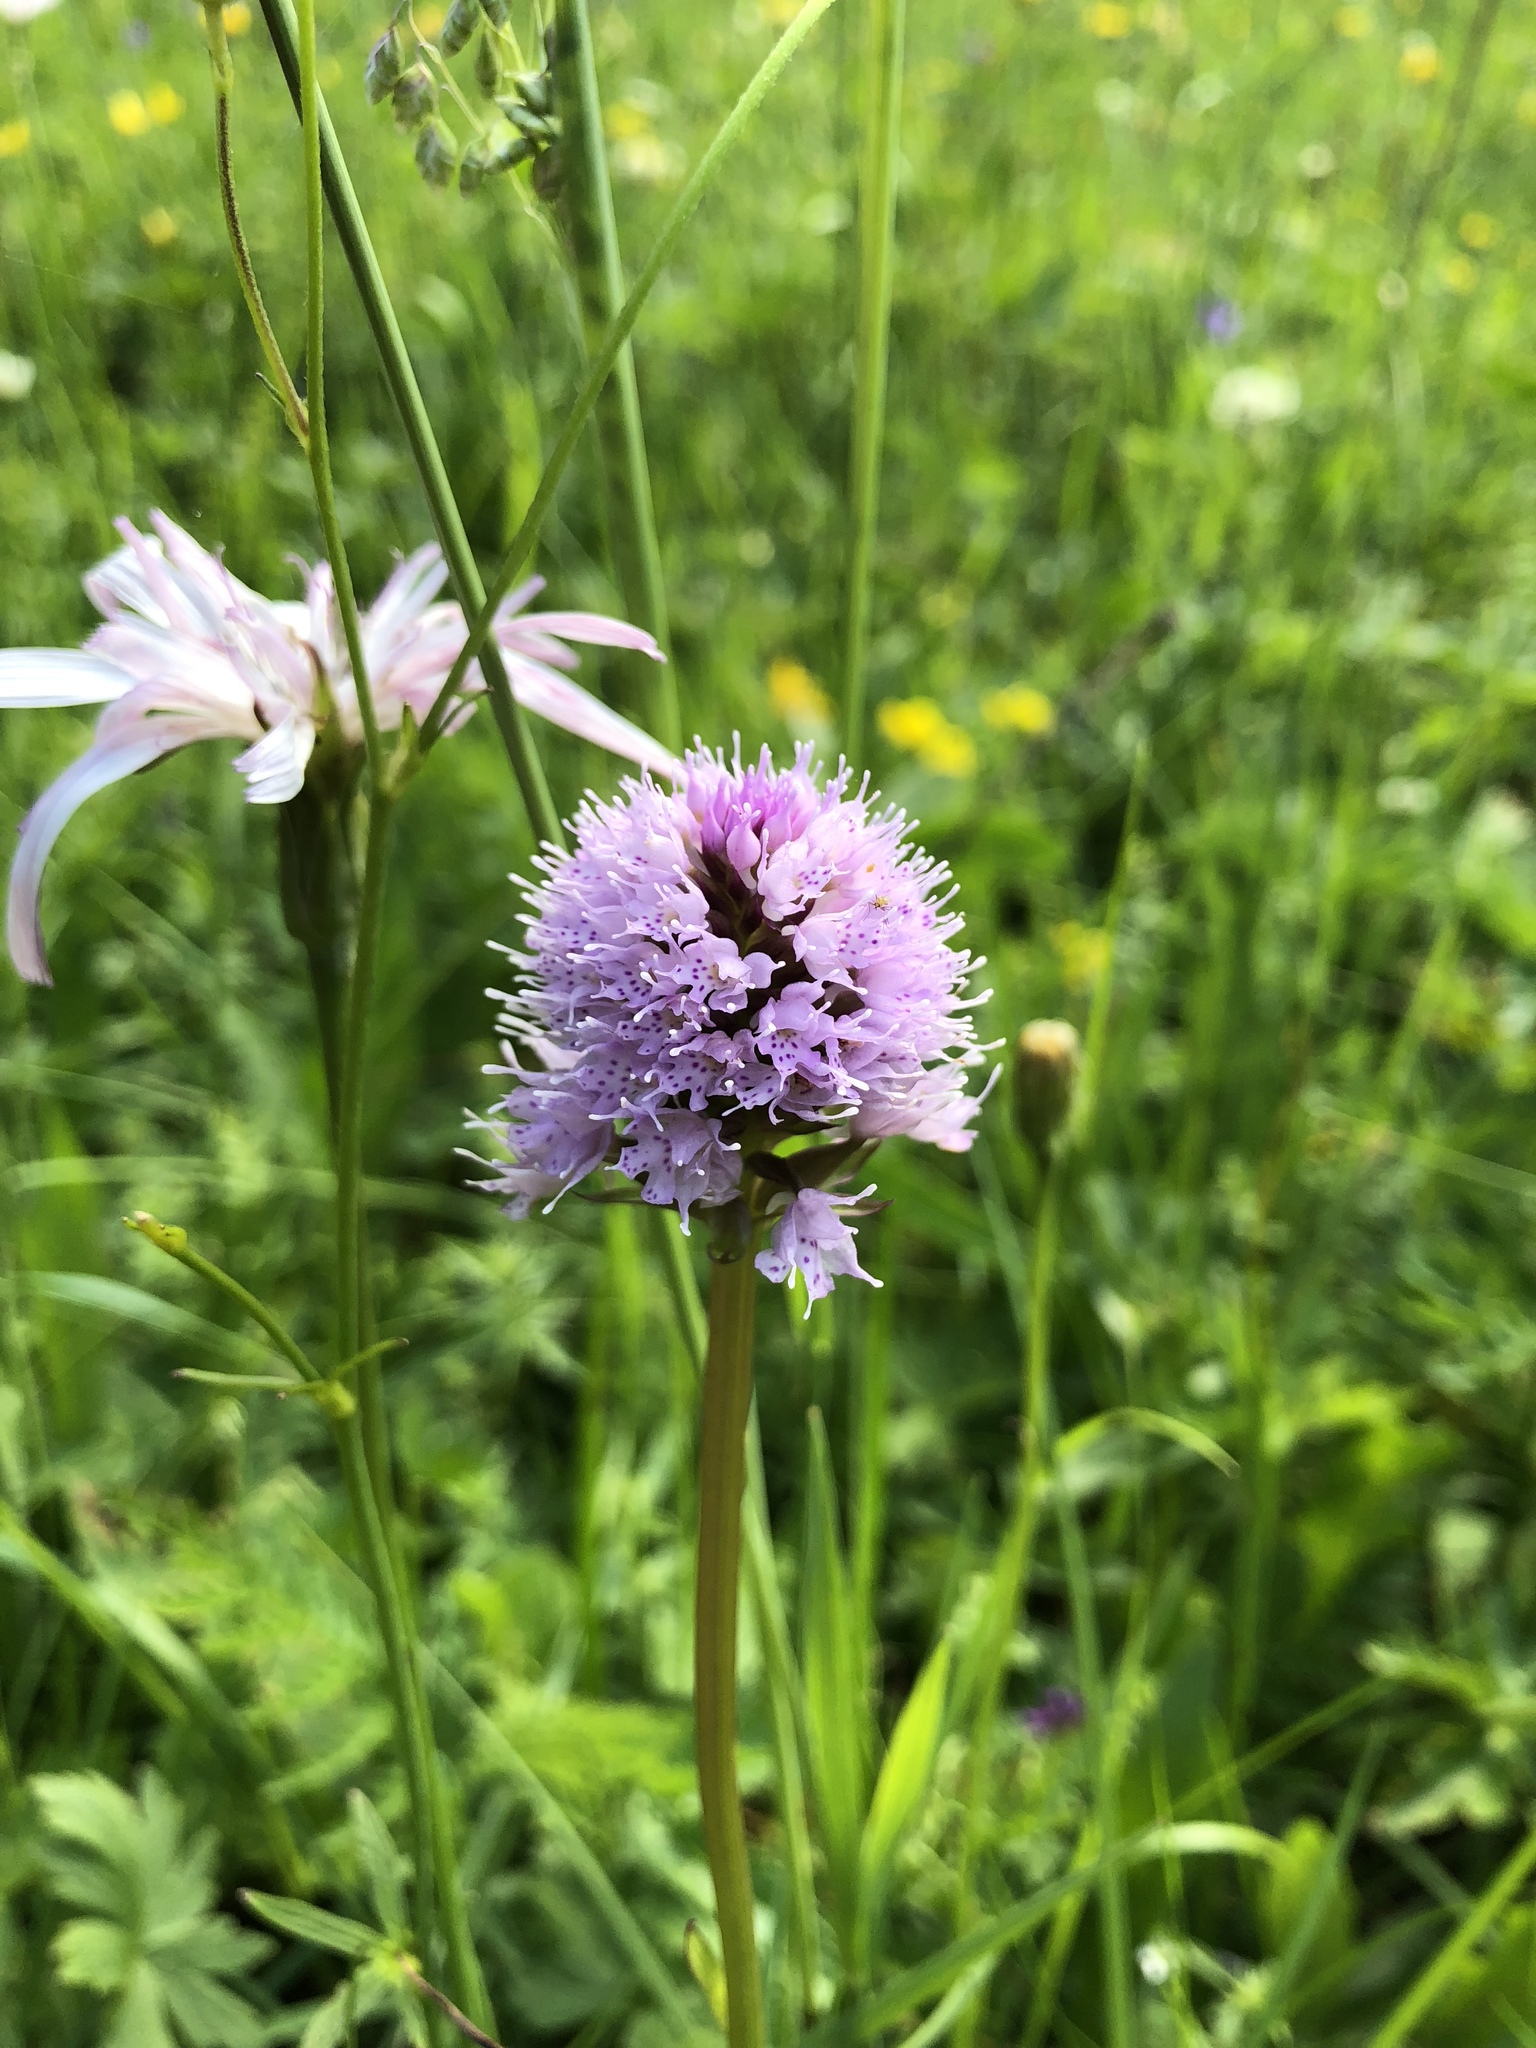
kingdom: Plantae
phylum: Tracheophyta
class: Liliopsida
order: Asparagales
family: Orchidaceae
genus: Traunsteinera
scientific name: Traunsteinera globosa
